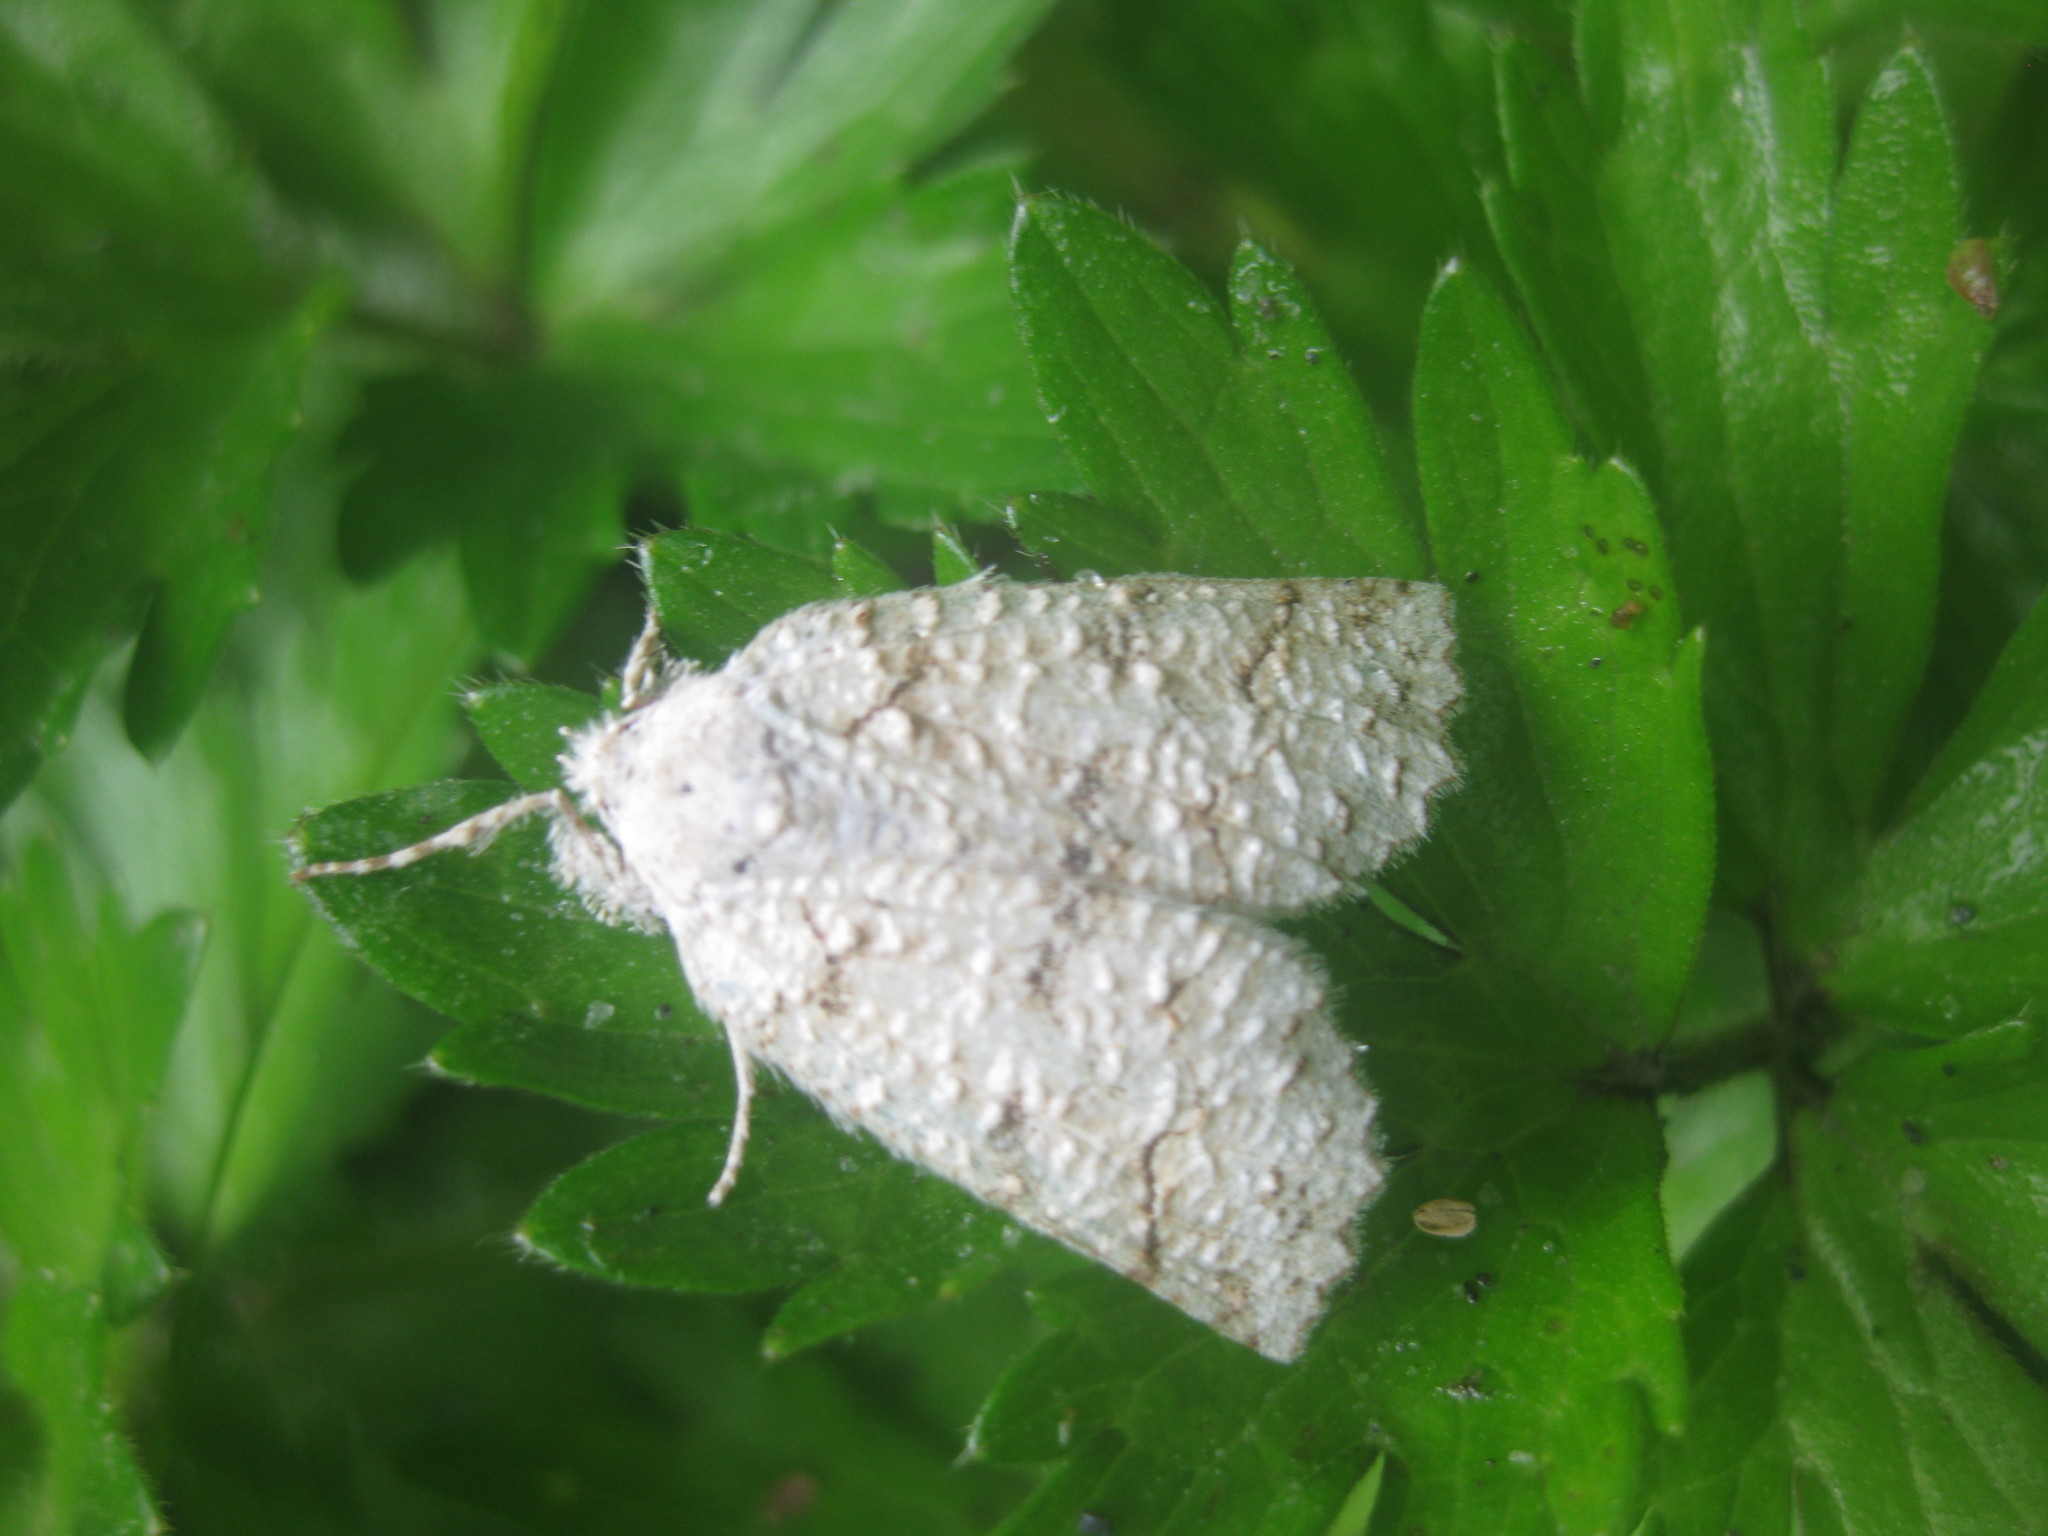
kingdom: Animalia
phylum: Arthropoda
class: Insecta
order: Lepidoptera
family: Geometridae
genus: Declana
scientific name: Declana floccosa
